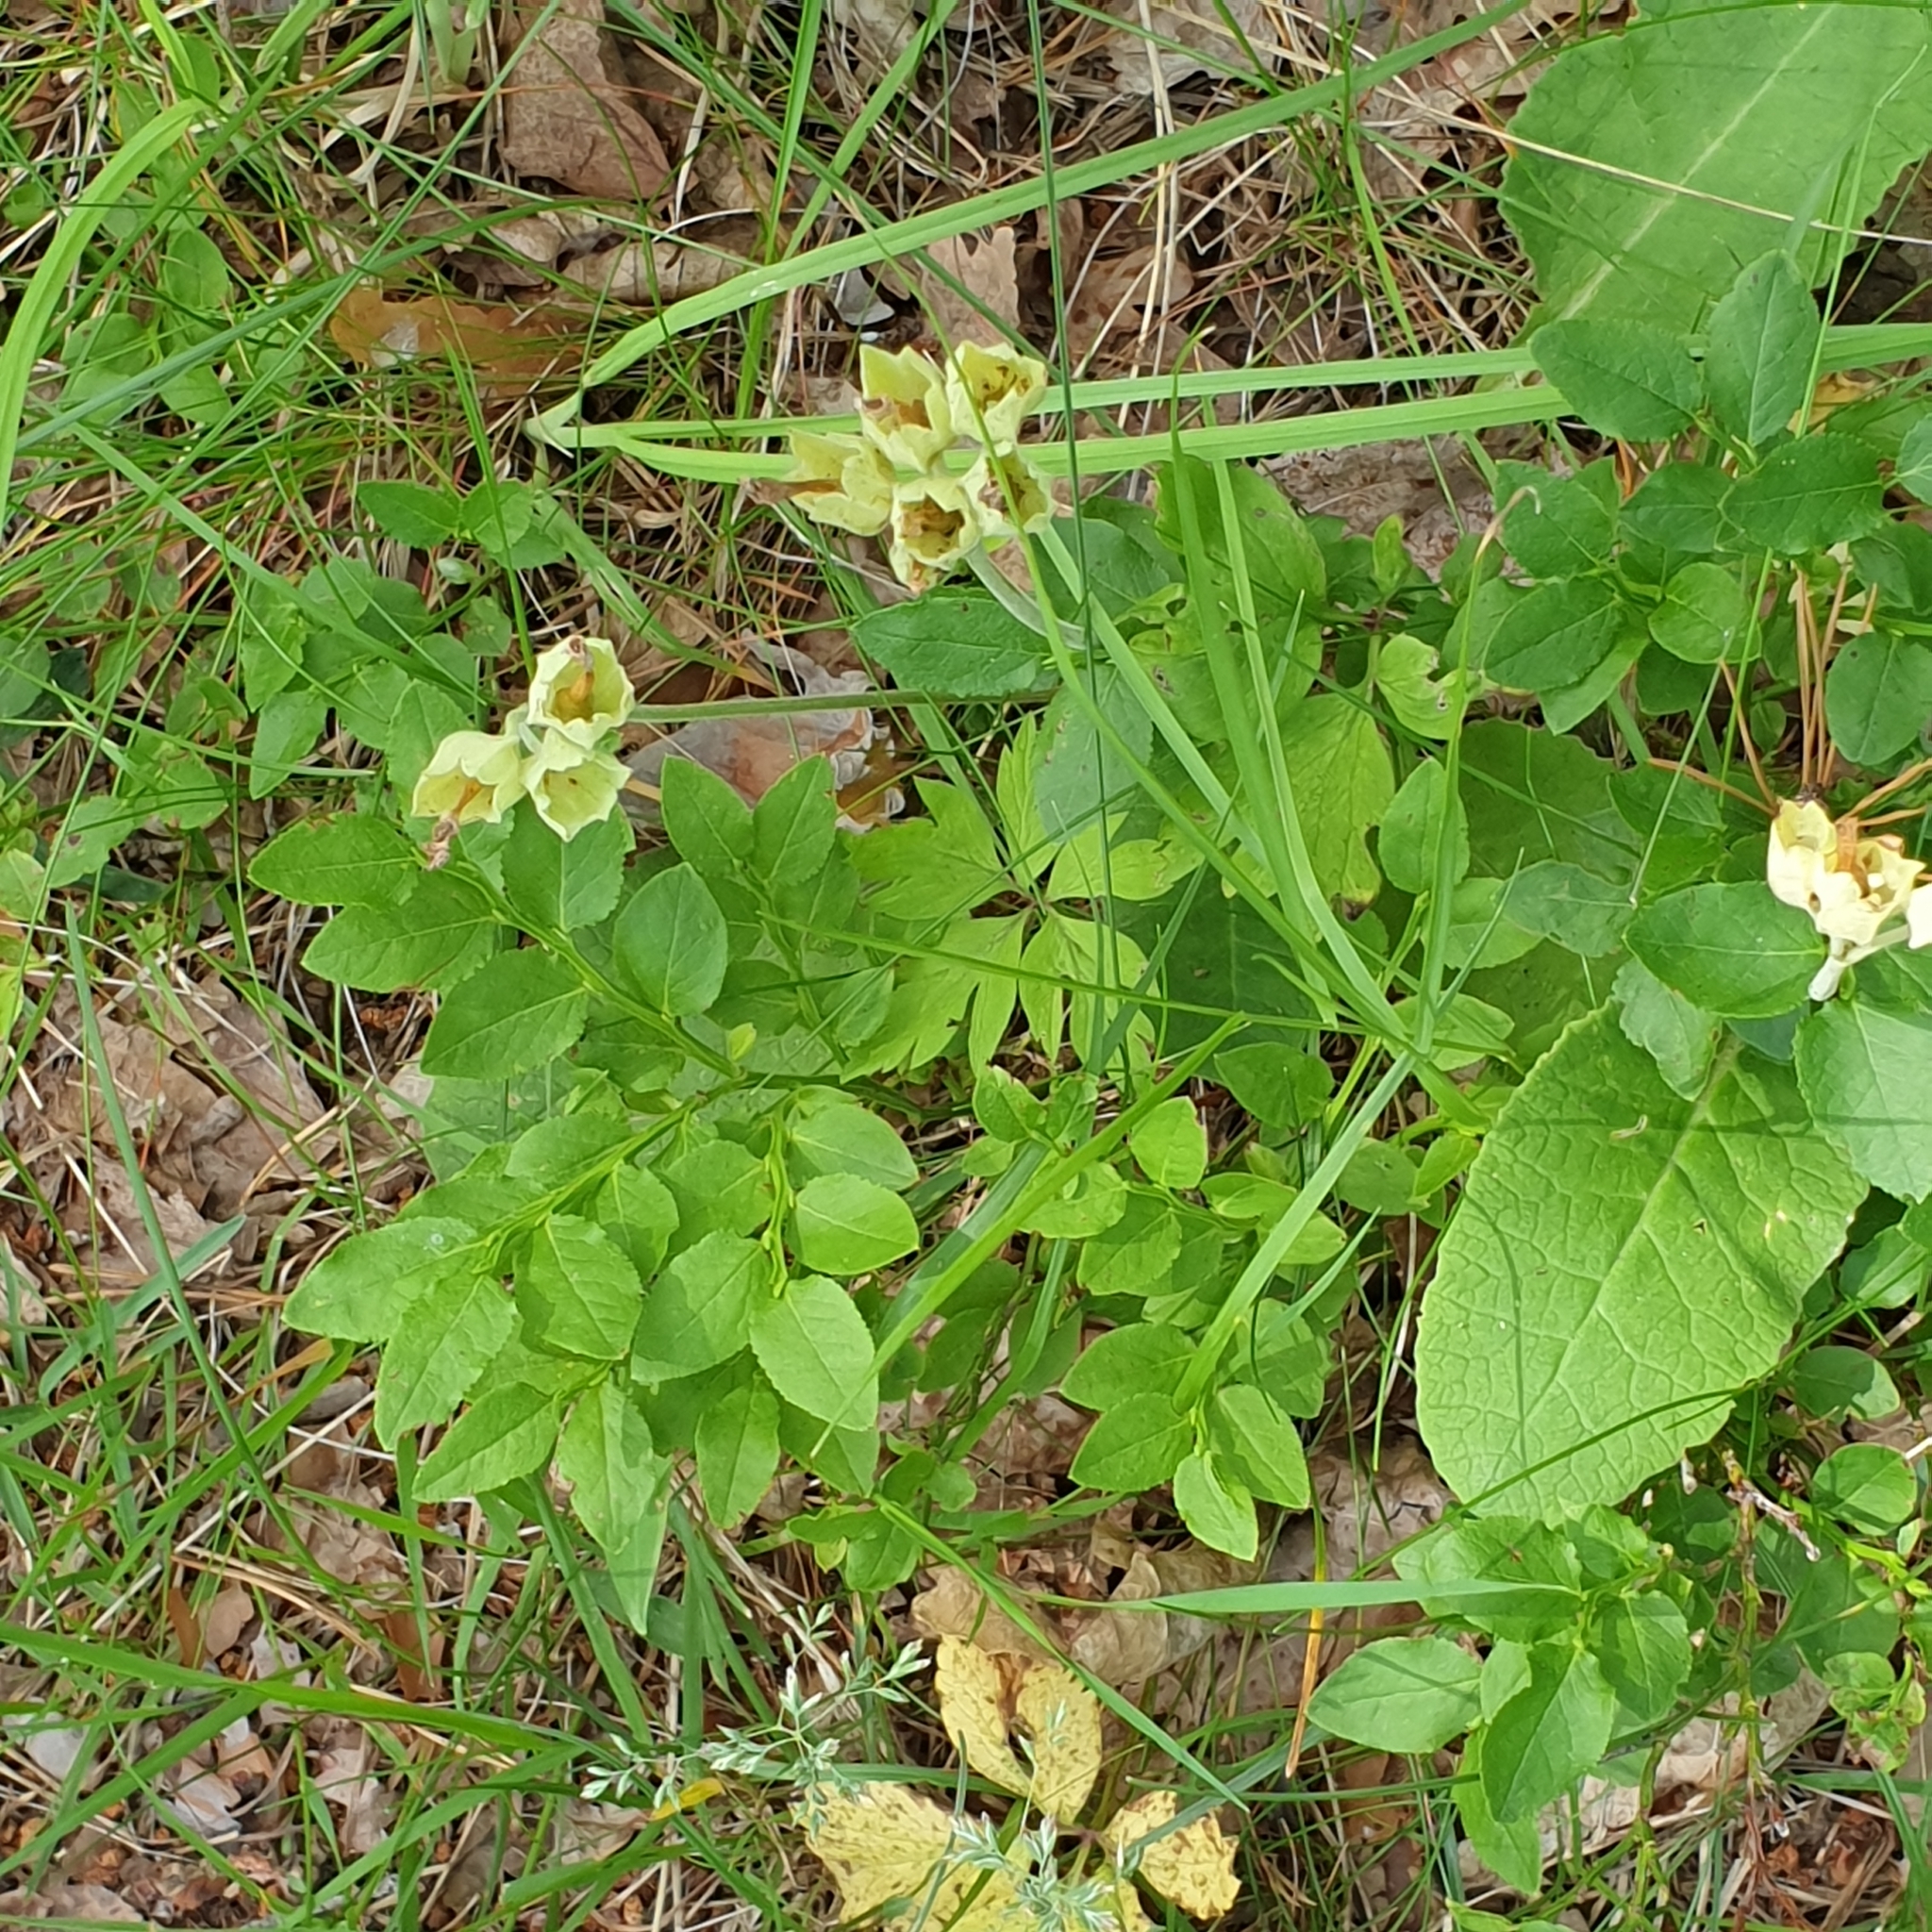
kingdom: Plantae
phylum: Tracheophyta
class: Magnoliopsida
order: Ericales
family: Primulaceae
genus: Primula
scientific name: Primula veris
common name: Cowslip
